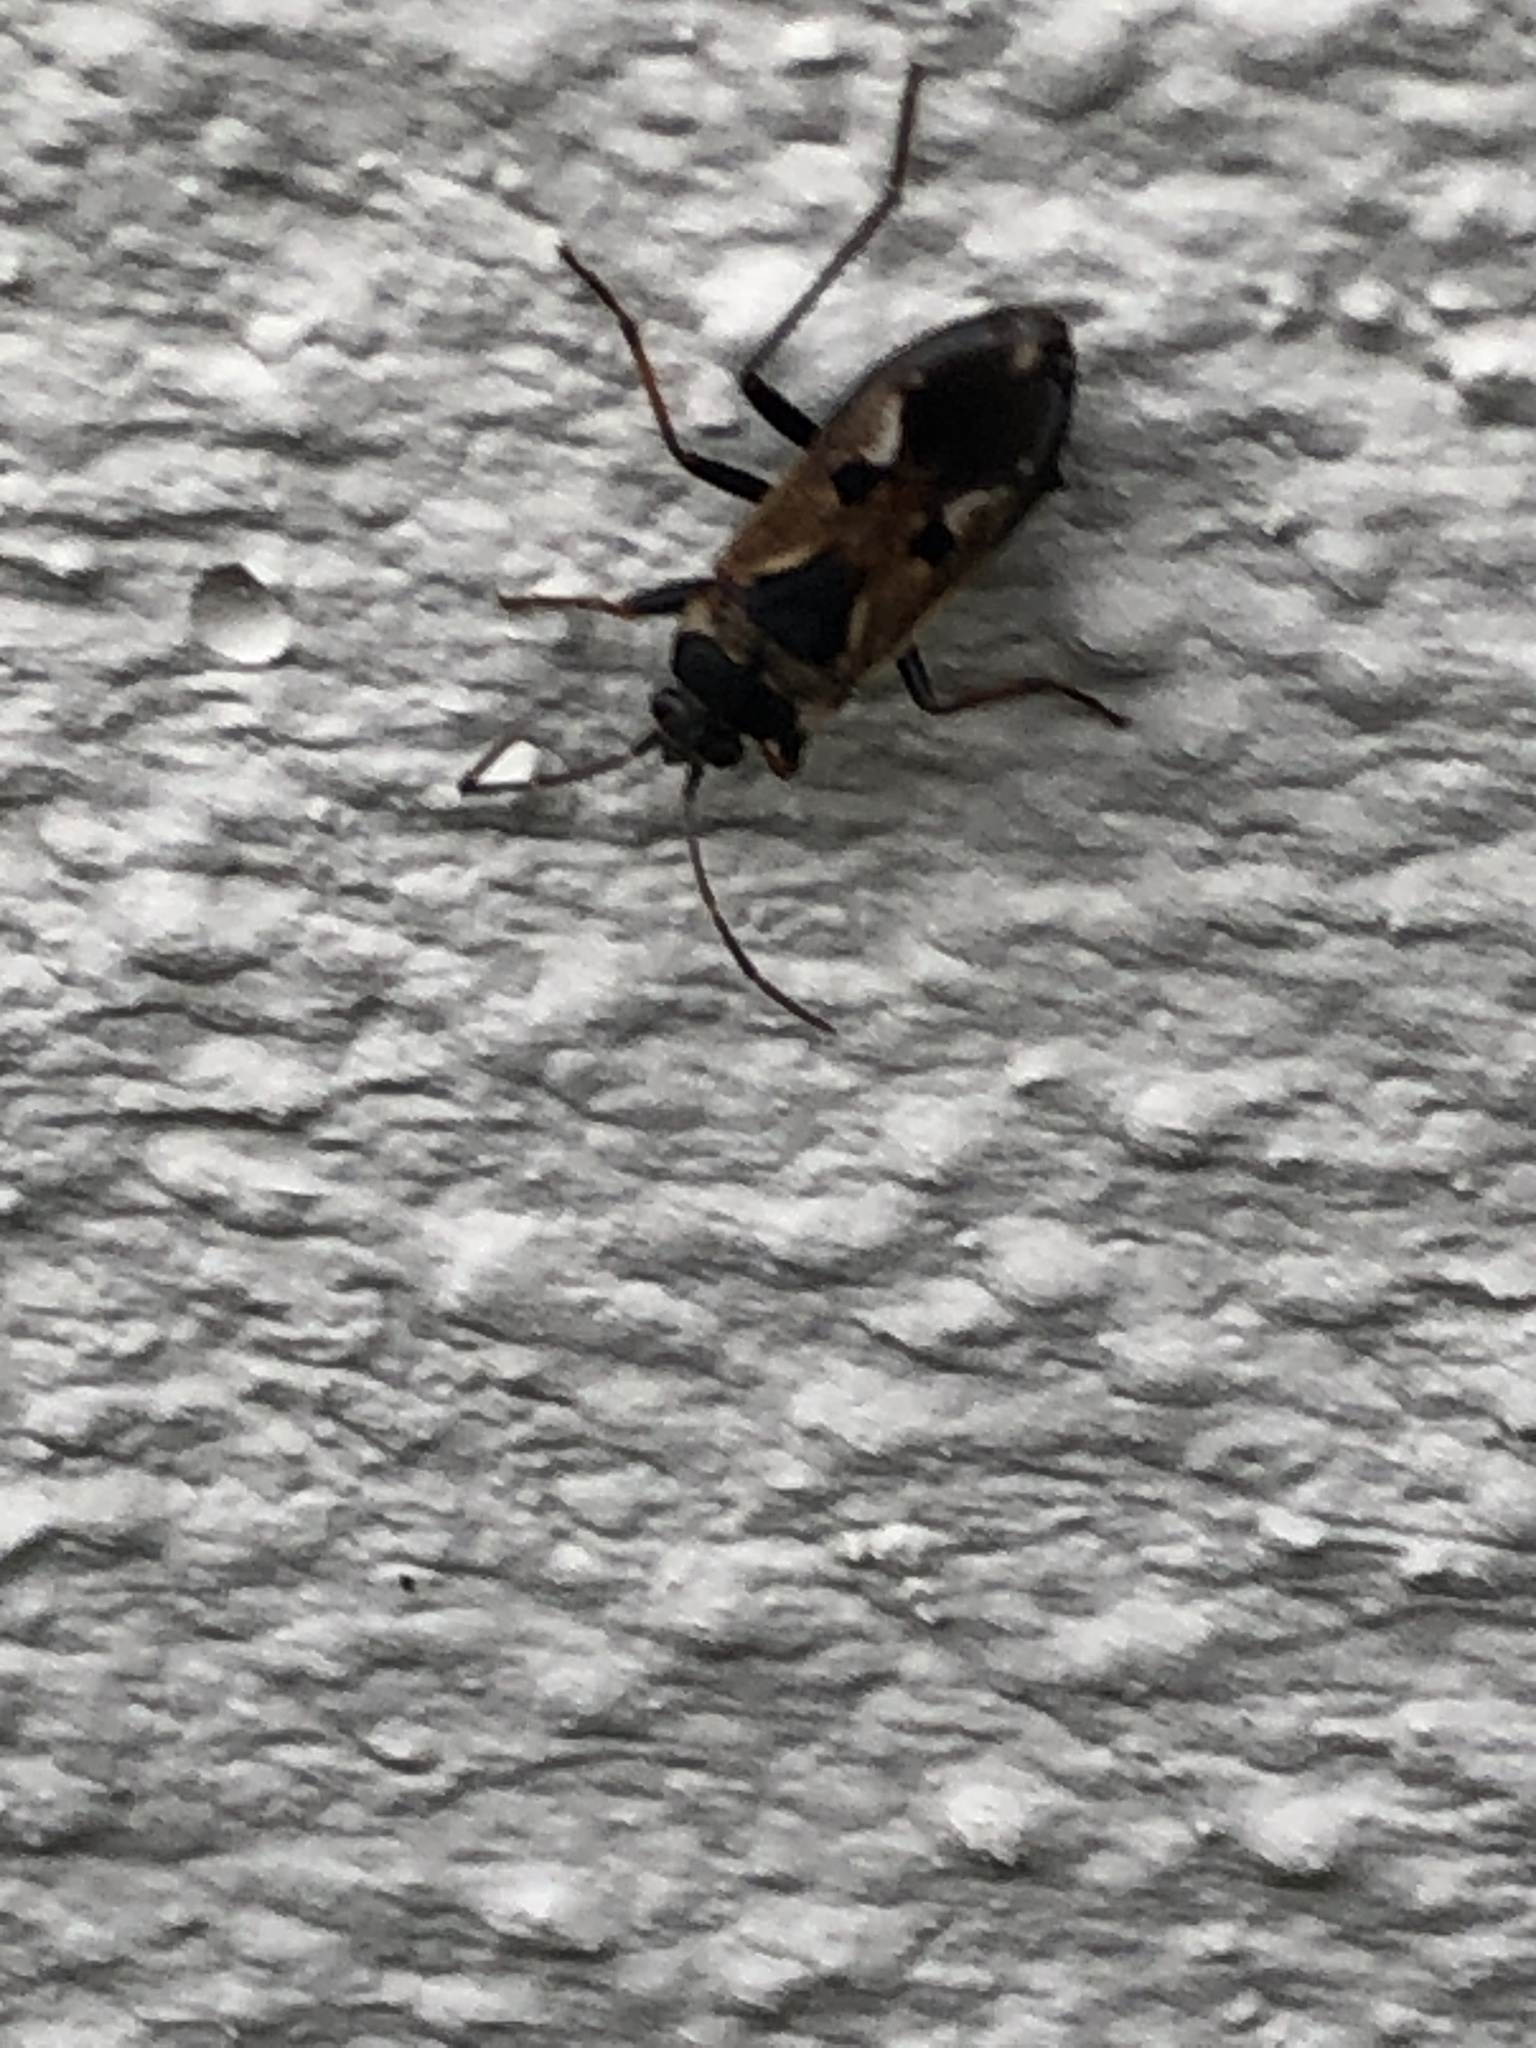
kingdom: Animalia
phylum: Arthropoda
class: Insecta
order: Hemiptera
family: Rhyparochromidae
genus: Rhyparochromus
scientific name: Rhyparochromus vulgaris
